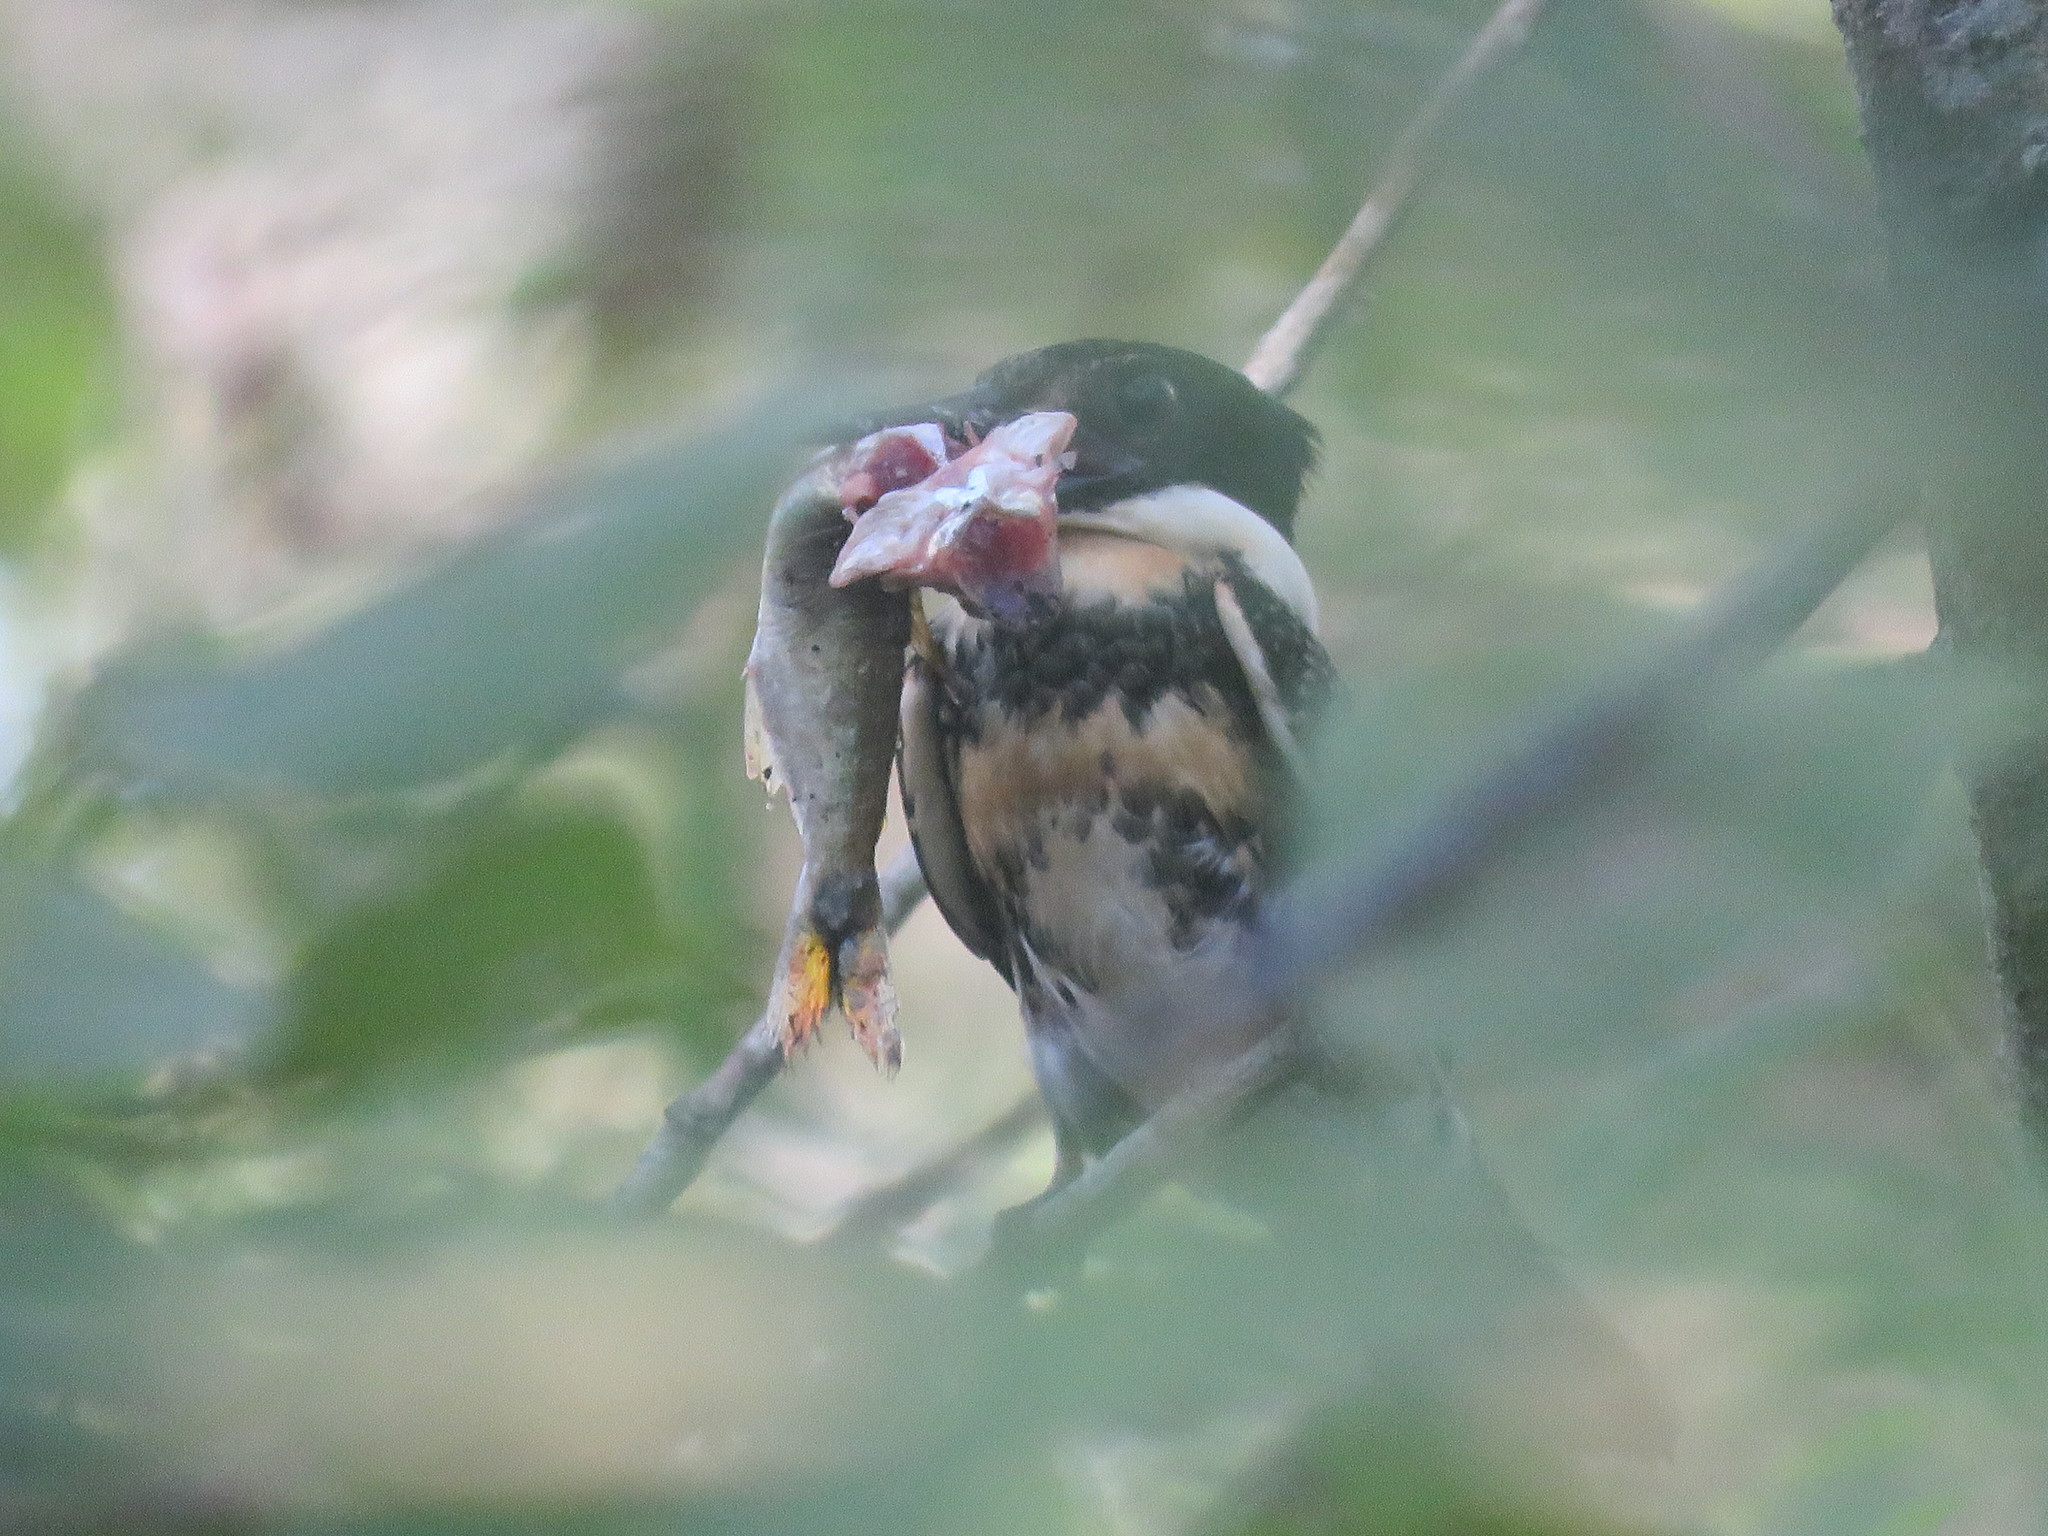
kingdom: Animalia
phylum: Chordata
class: Aves
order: Coraciiformes
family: Alcedinidae
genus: Chloroceryle
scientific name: Chloroceryle americana
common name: Green kingfisher
